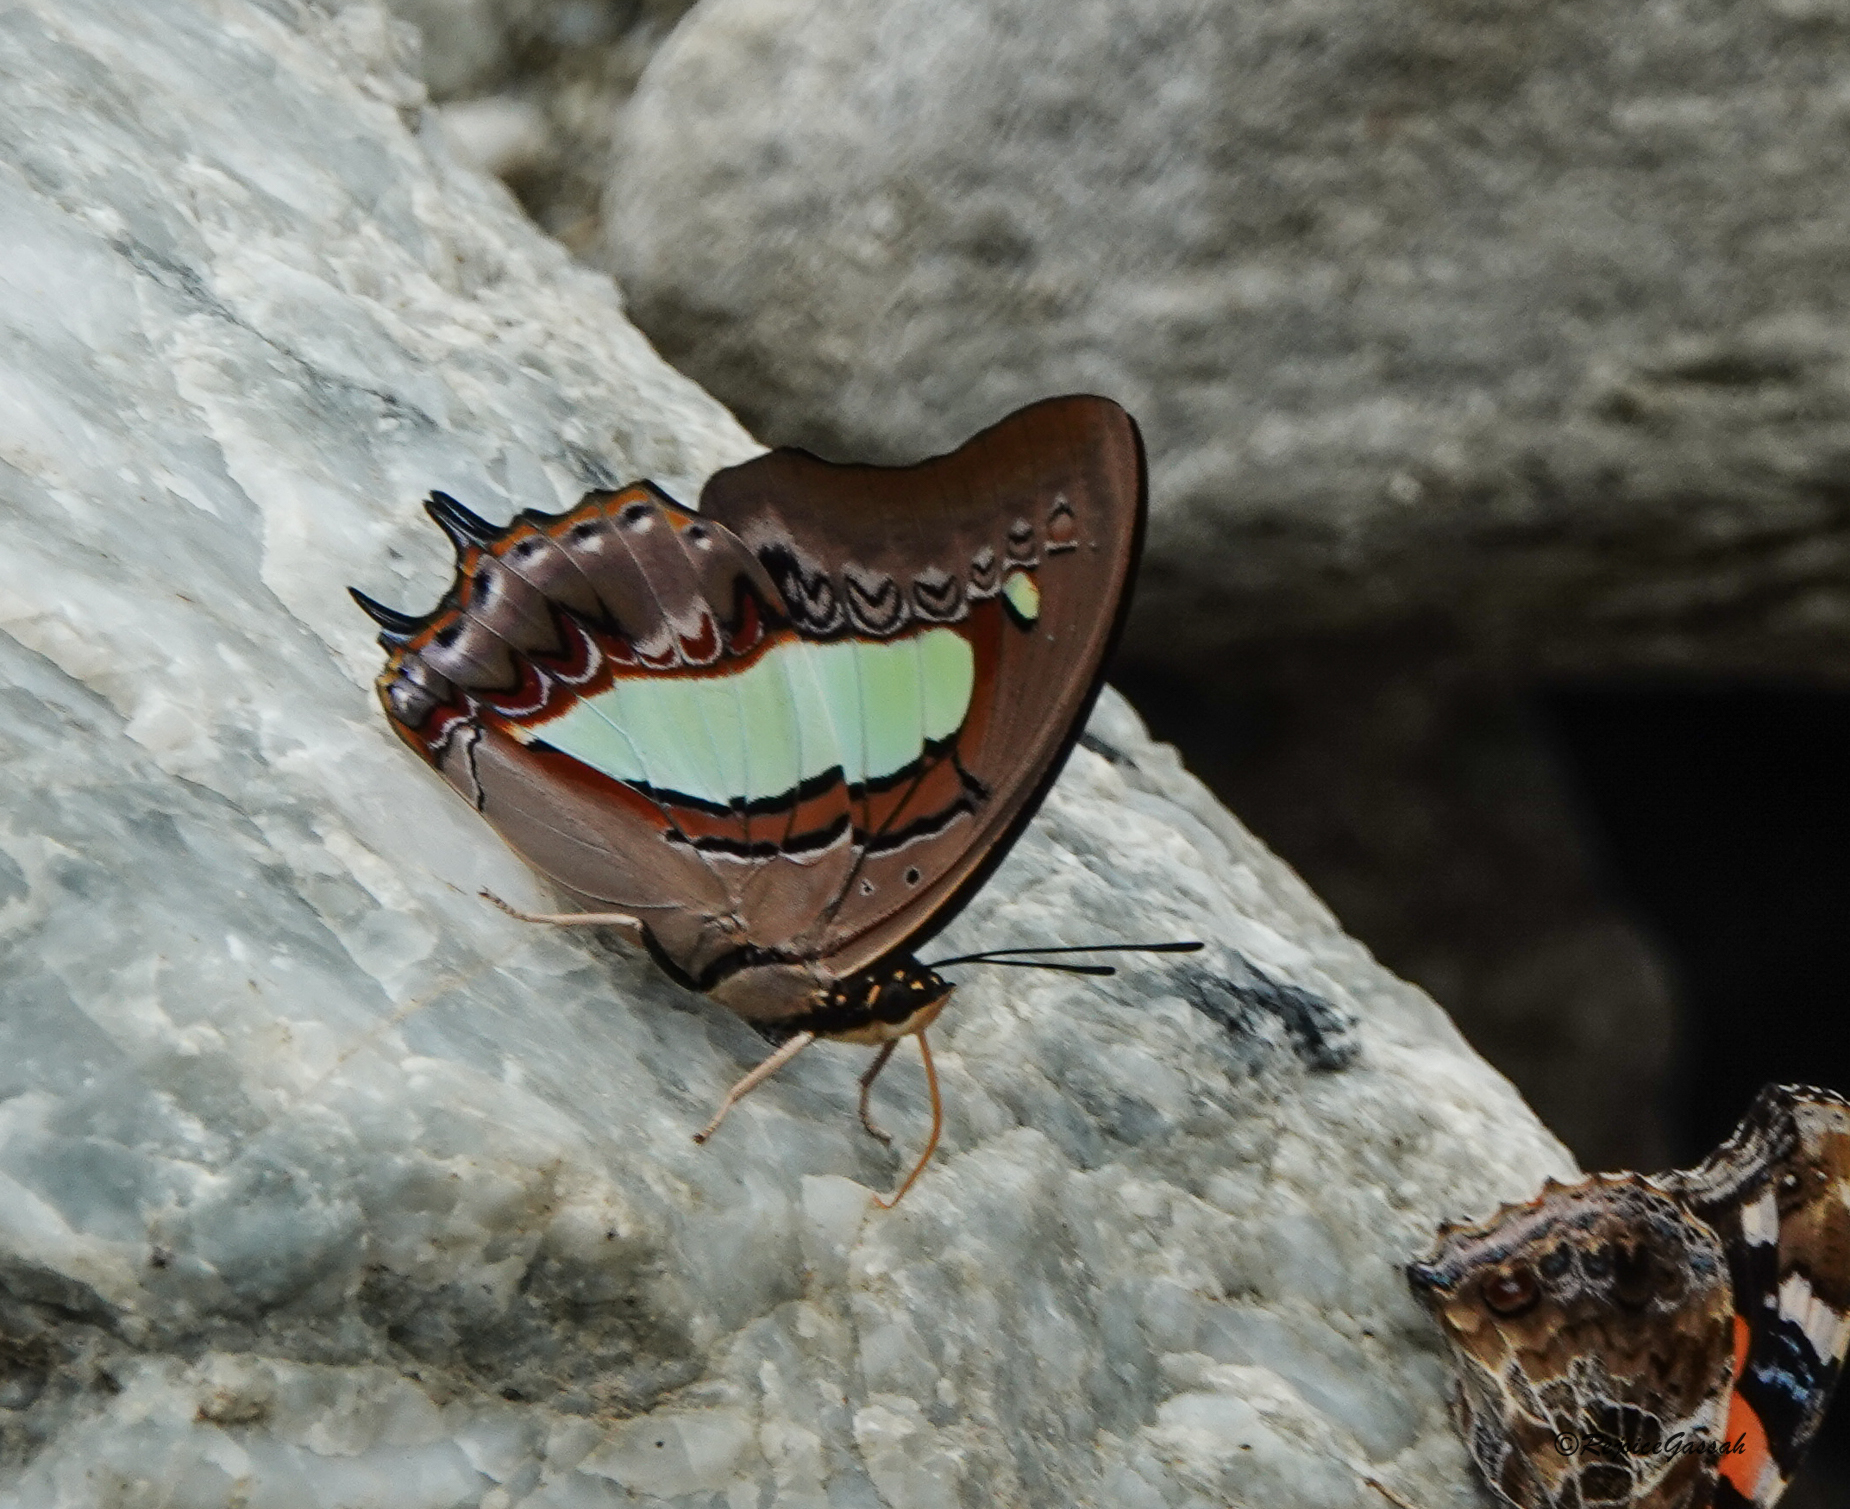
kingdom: Animalia
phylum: Arthropoda
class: Insecta
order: Lepidoptera
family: Nymphalidae
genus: Polyura
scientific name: Polyura athamas
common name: Common nawab
